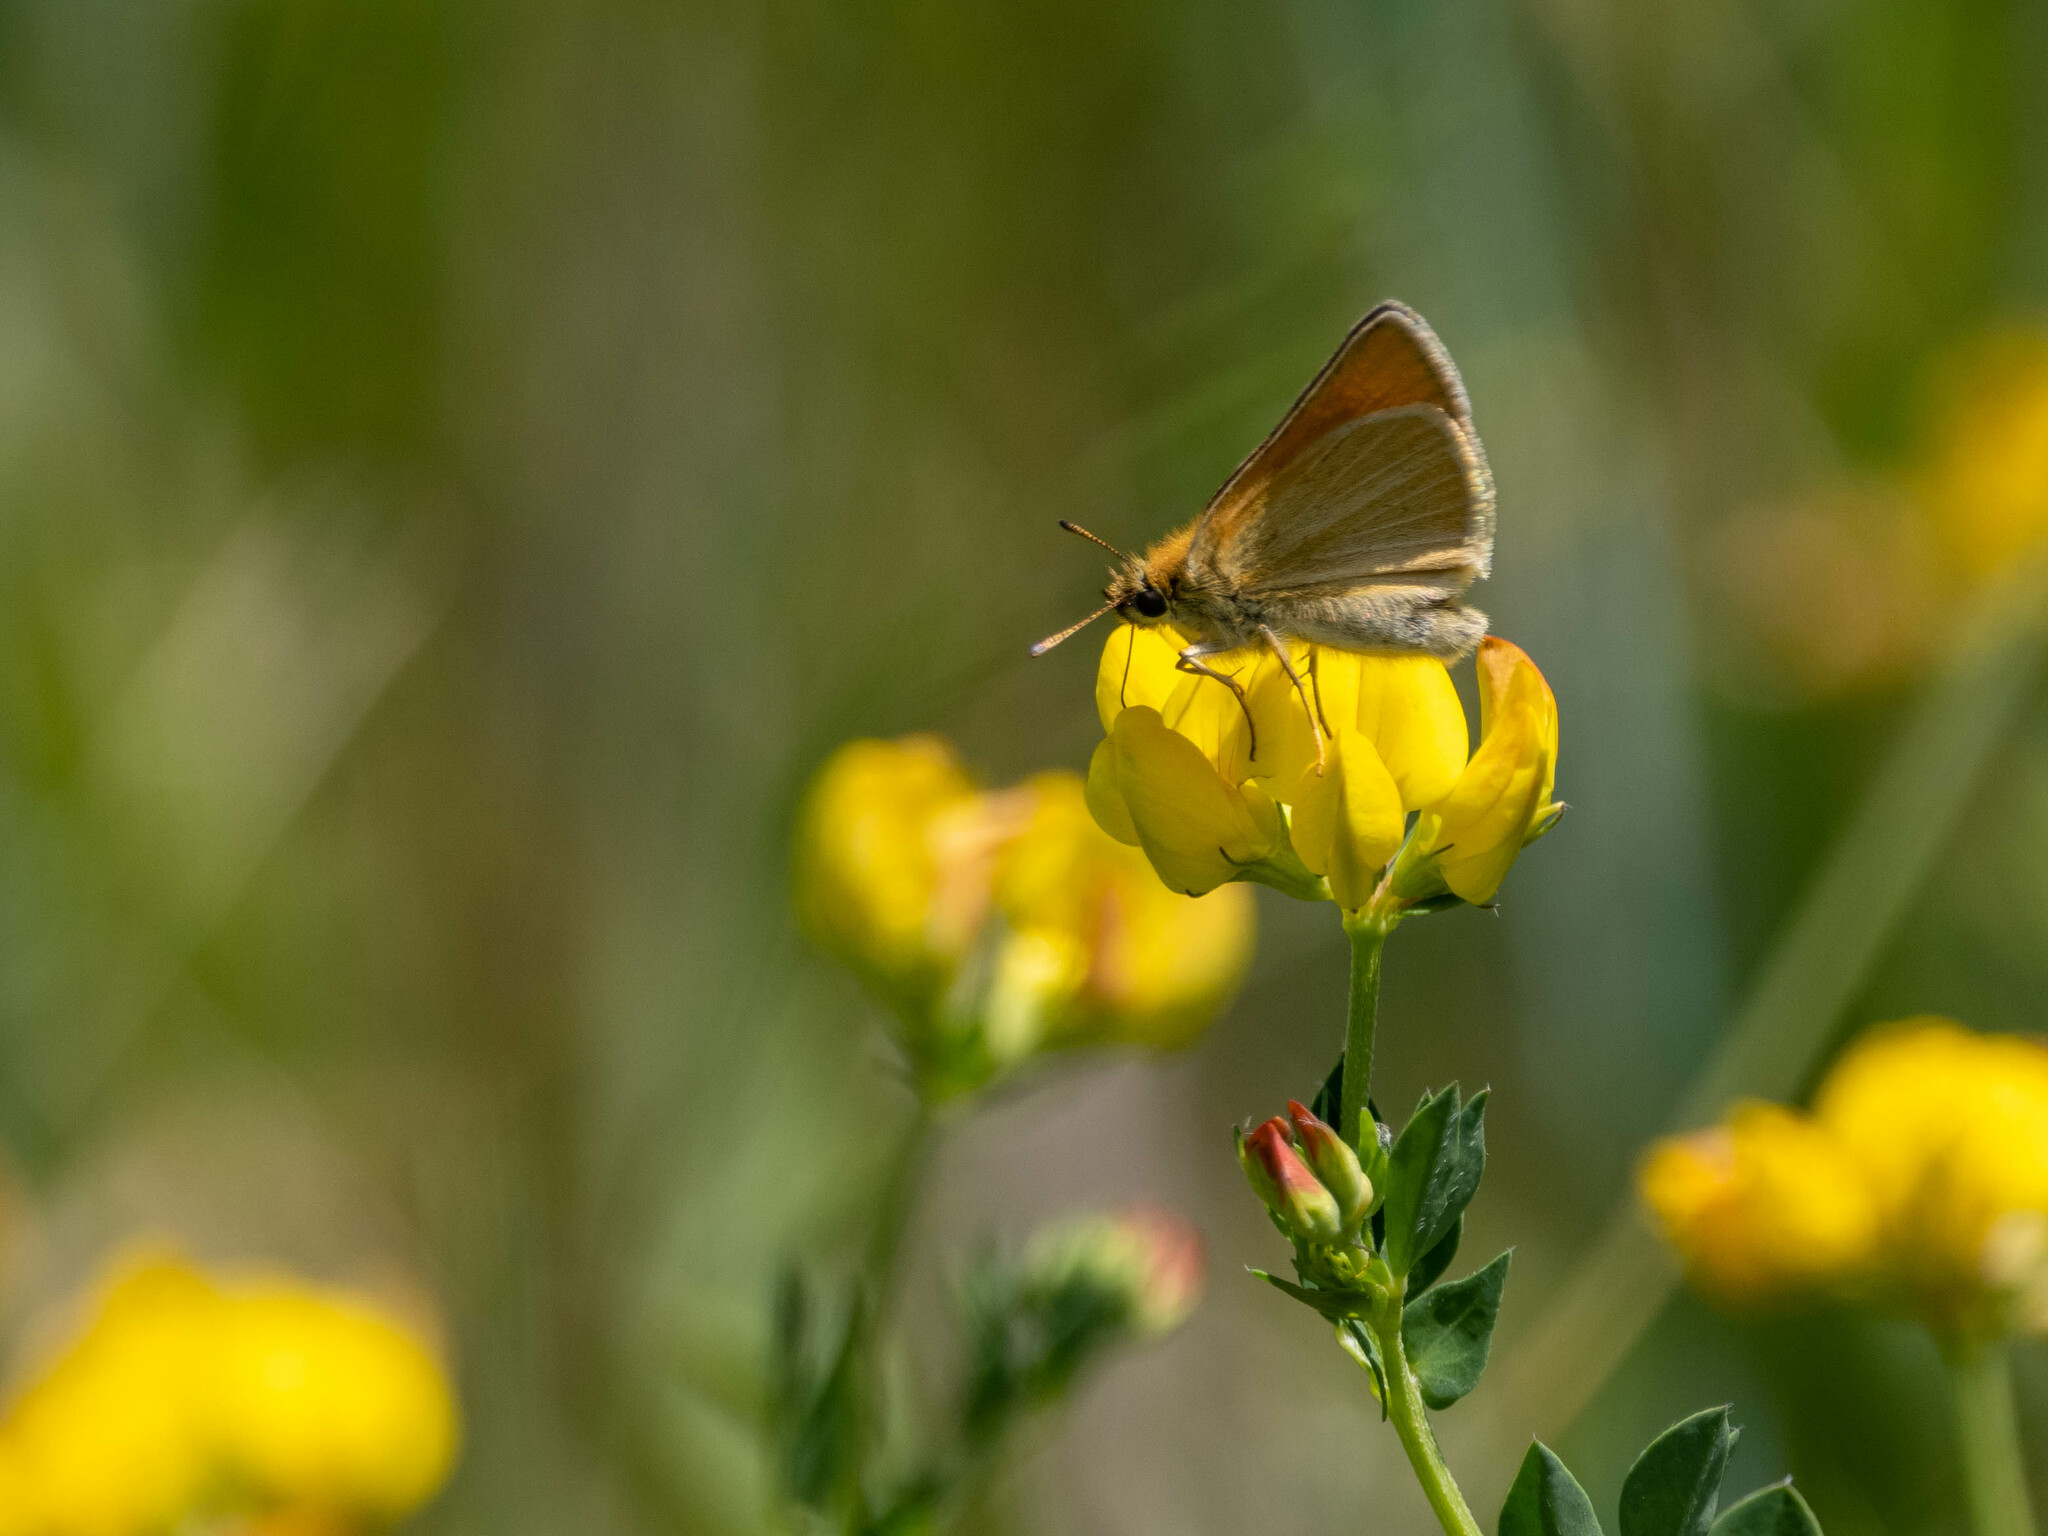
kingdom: Animalia
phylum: Arthropoda
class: Insecta
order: Lepidoptera
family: Hesperiidae
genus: Thymelicus
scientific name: Thymelicus lineola
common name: Essex skipper
